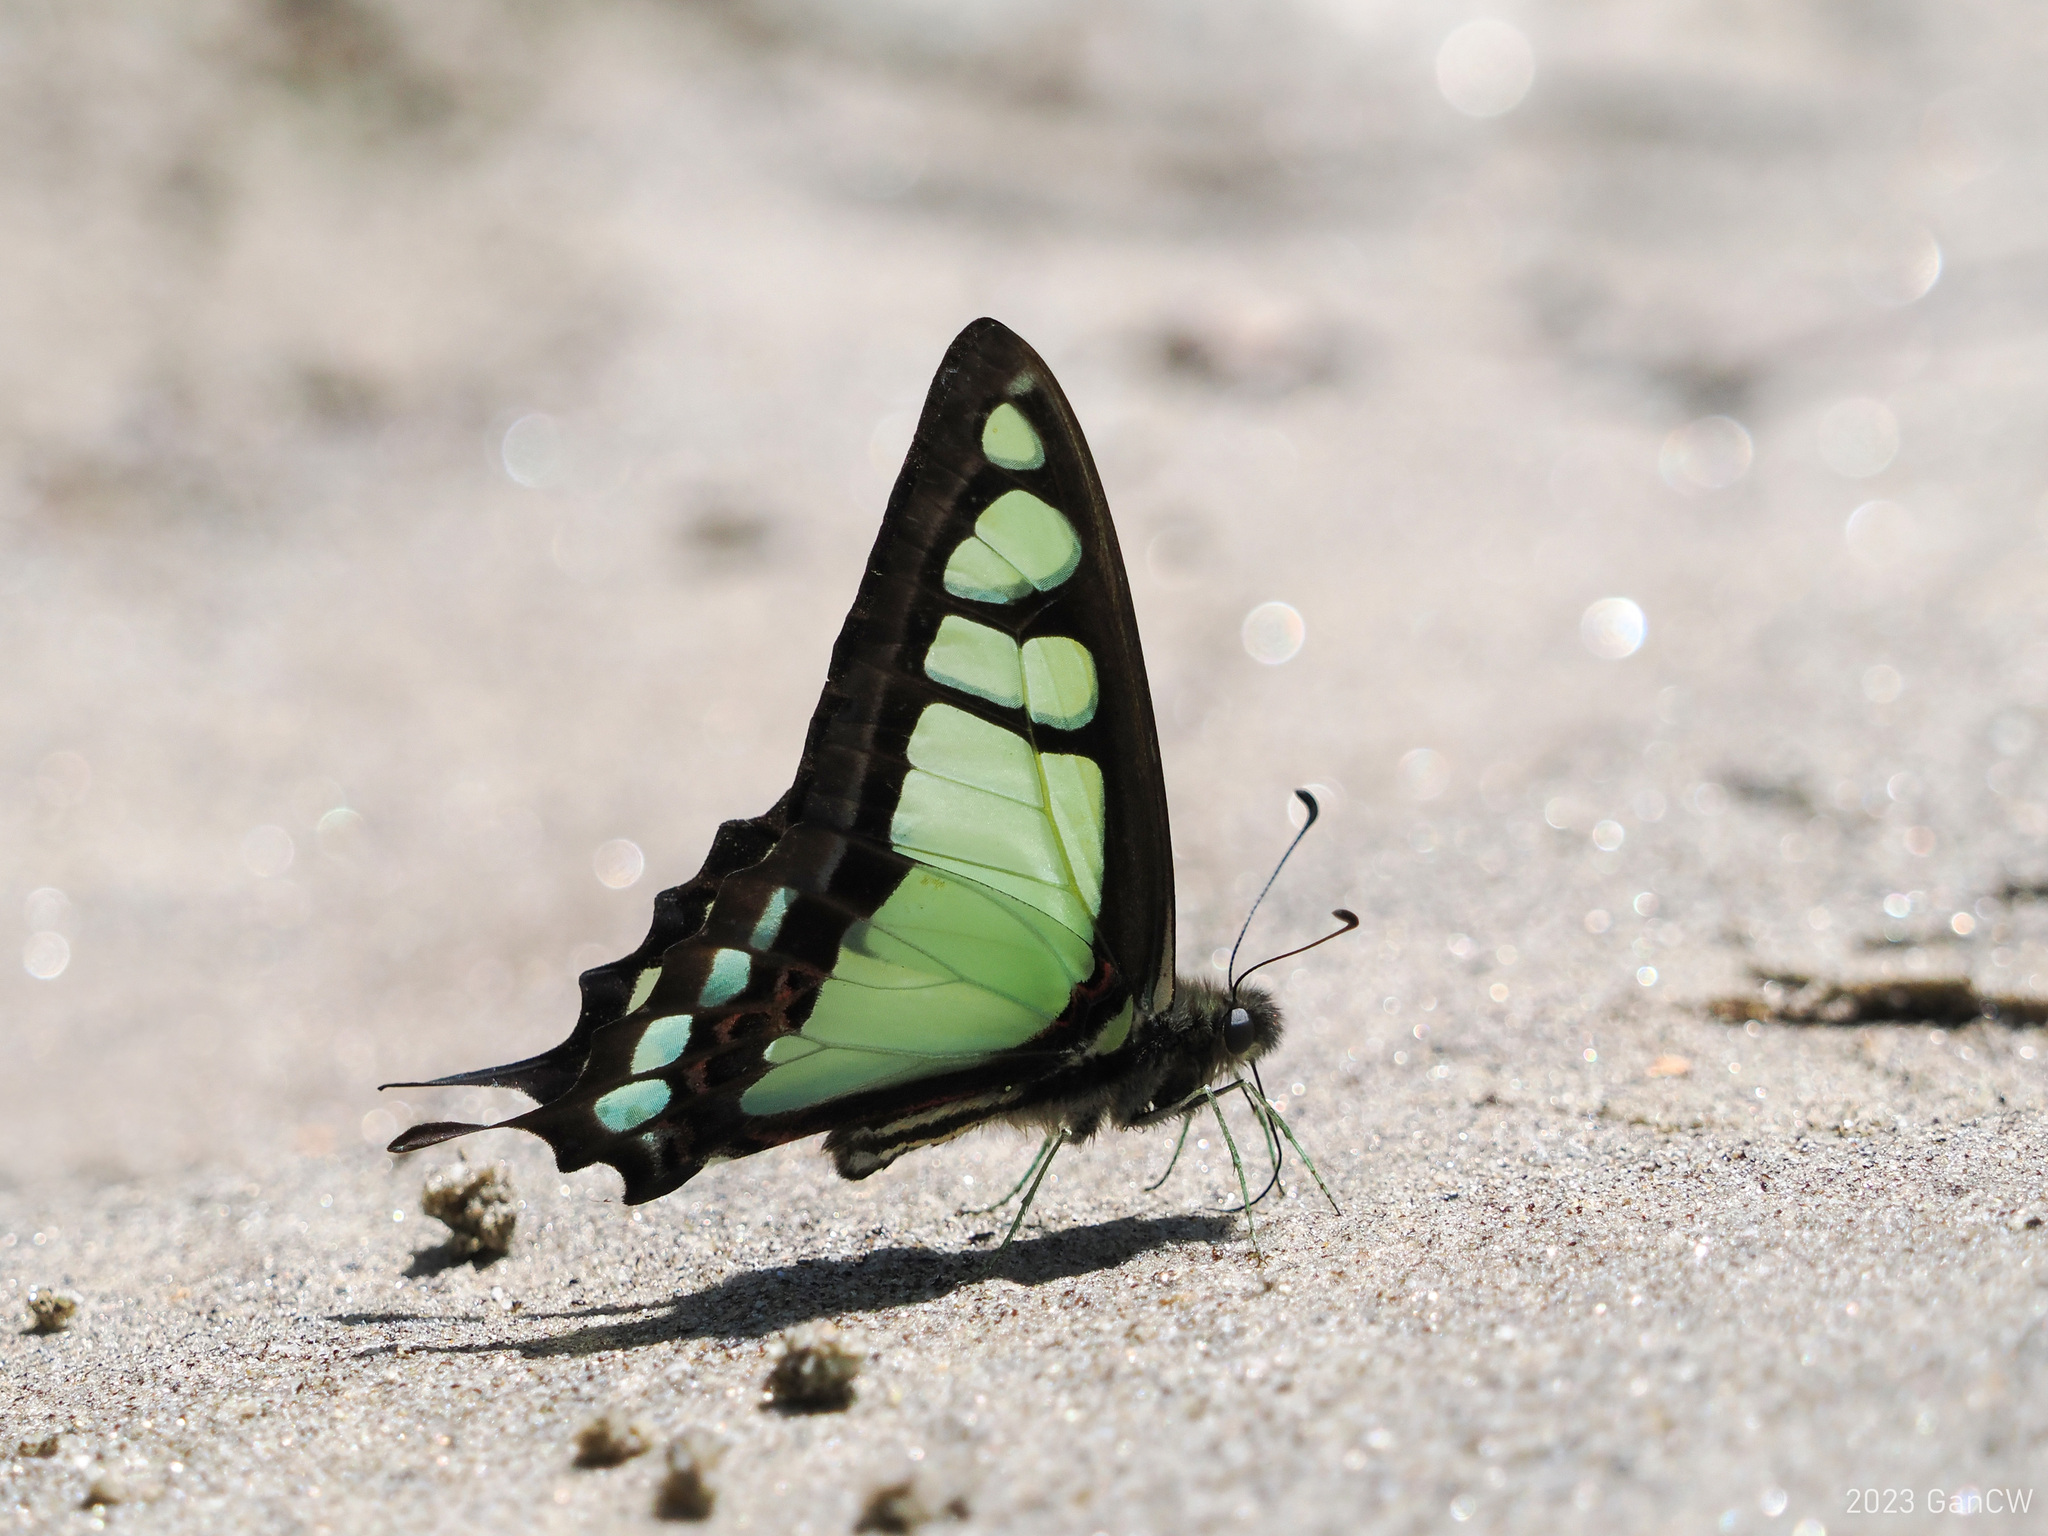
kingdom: Animalia
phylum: Arthropoda
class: Insecta
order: Lepidoptera
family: Papilionidae
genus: Graphium
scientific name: Graphium cloanthus
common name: Glassy bluebottle
